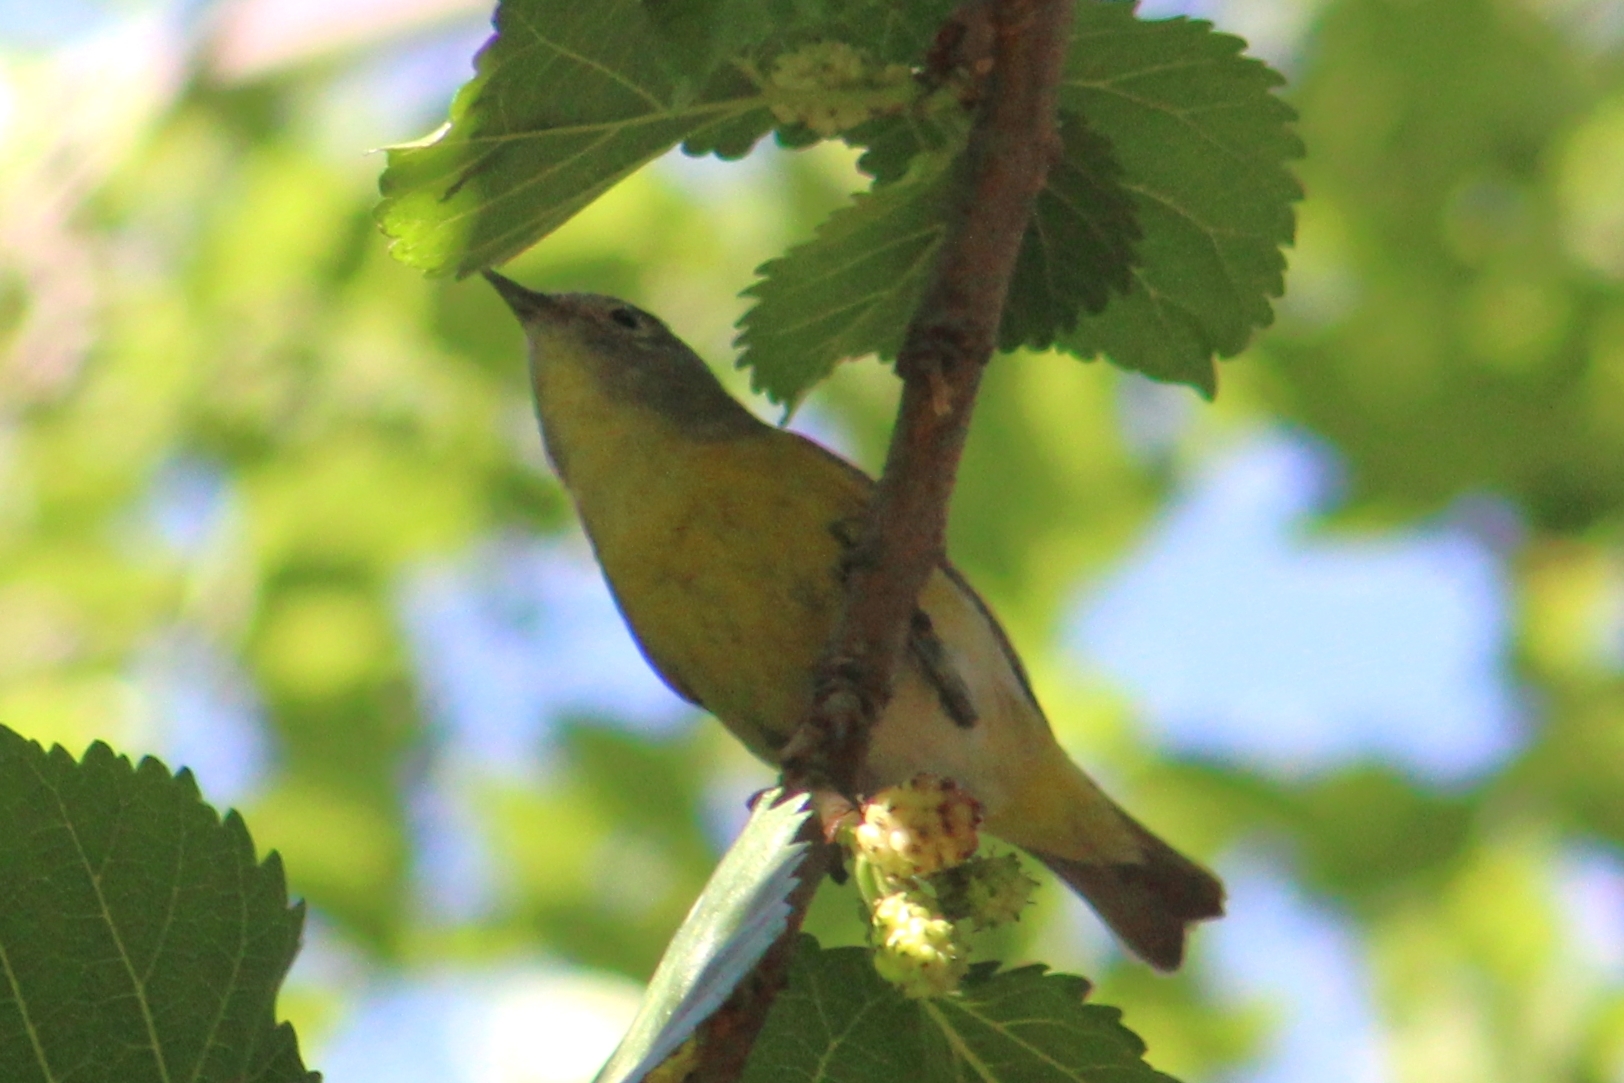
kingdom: Animalia
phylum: Chordata
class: Aves
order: Passeriformes
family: Parulidae
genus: Leiothlypis
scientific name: Leiothlypis ruficapilla
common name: Nashville warbler
